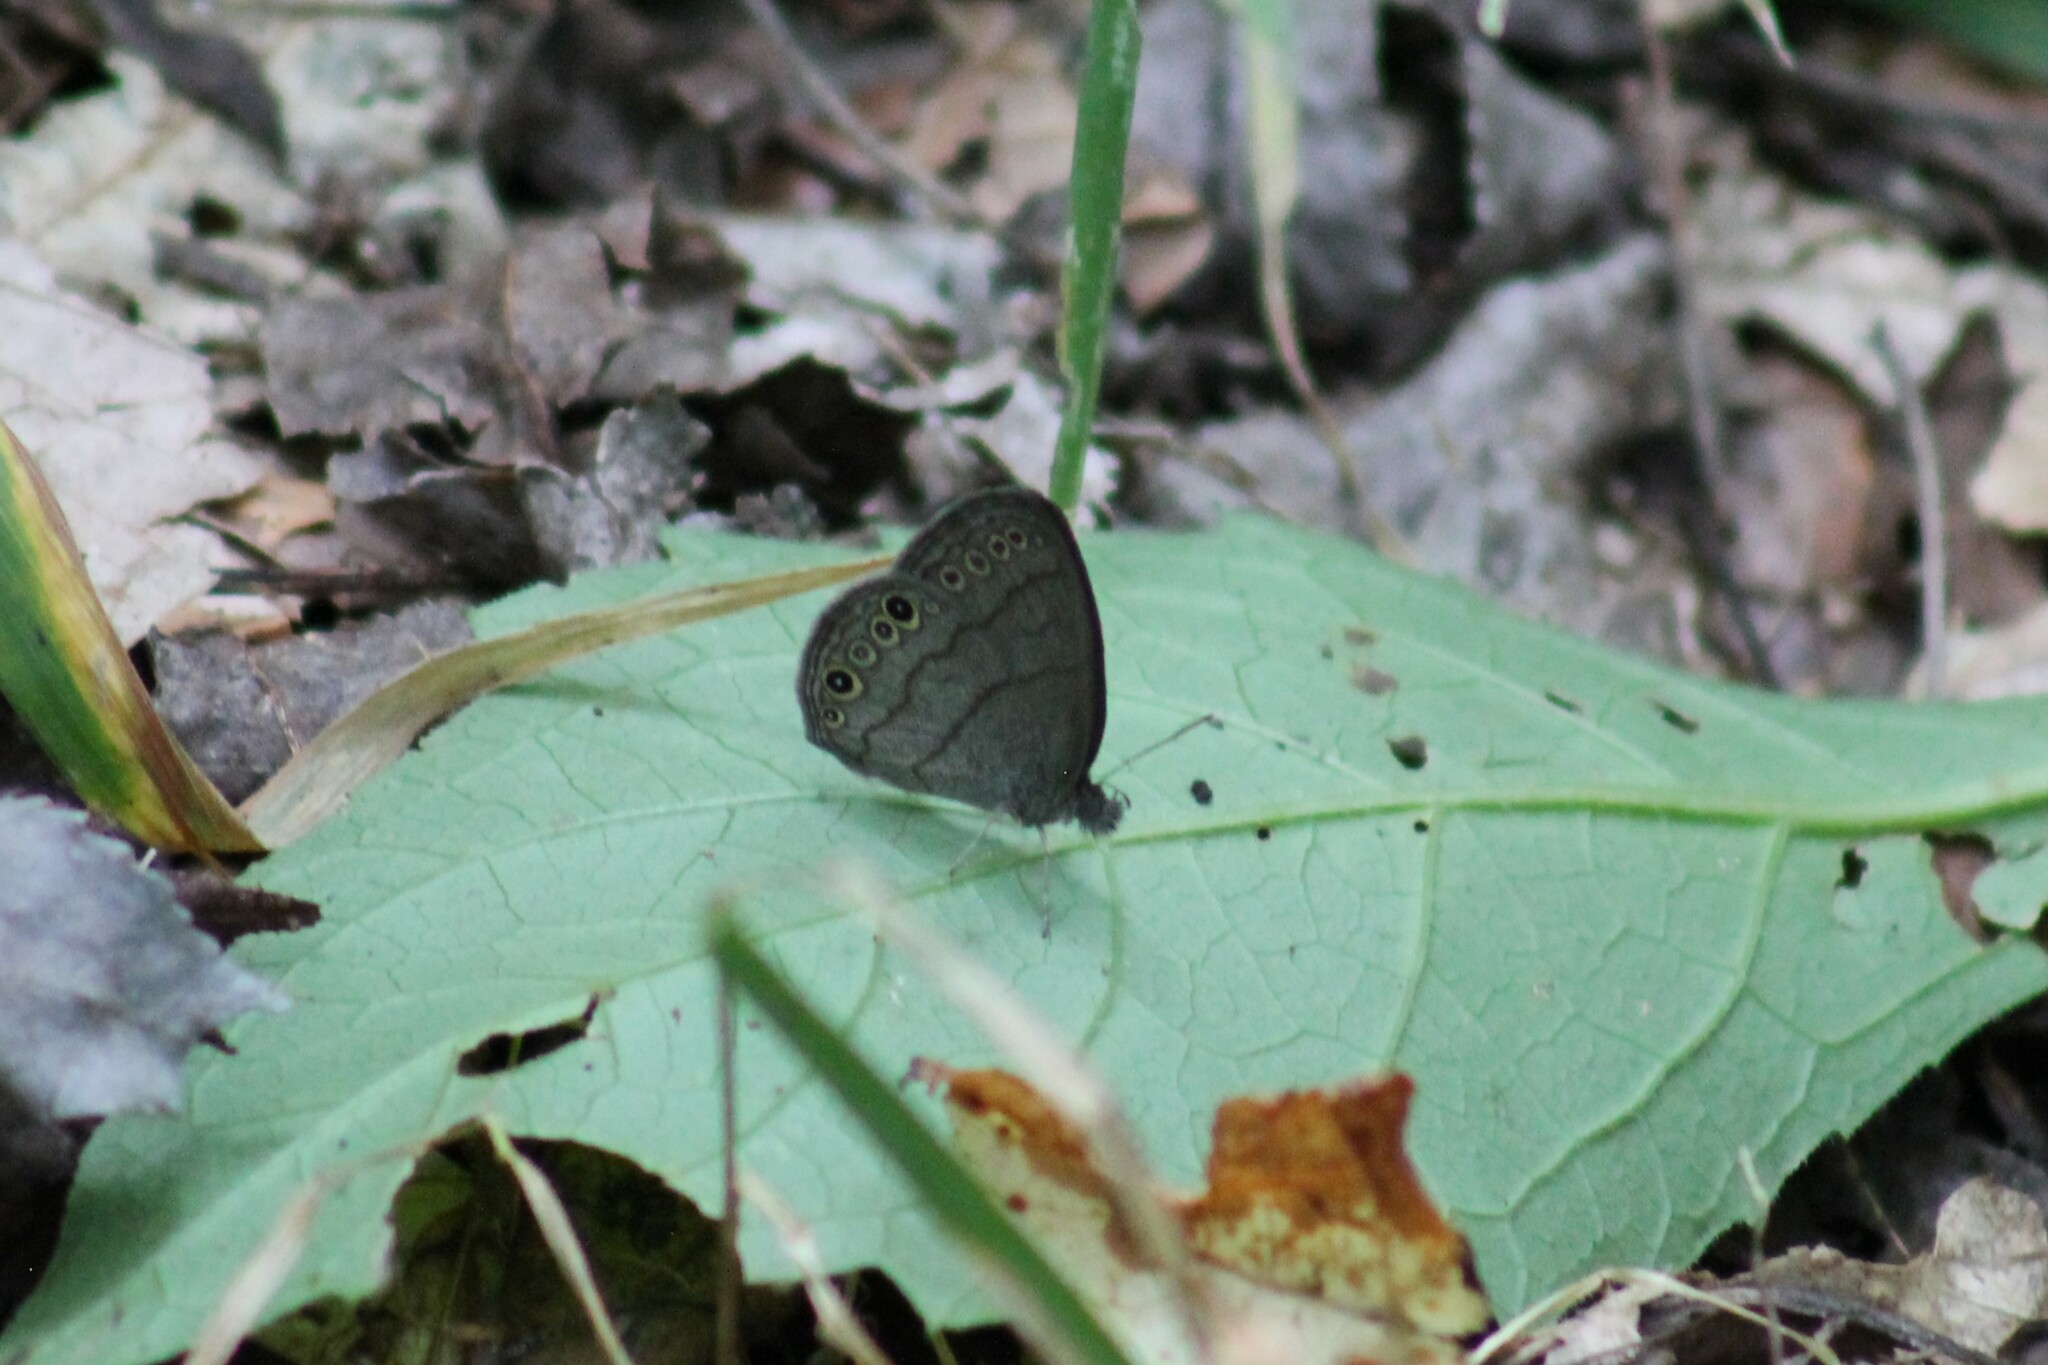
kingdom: Animalia
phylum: Arthropoda
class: Insecta
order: Lepidoptera
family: Nymphalidae
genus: Hermeuptychia
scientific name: Hermeuptychia hermes
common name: Hermes satyr
